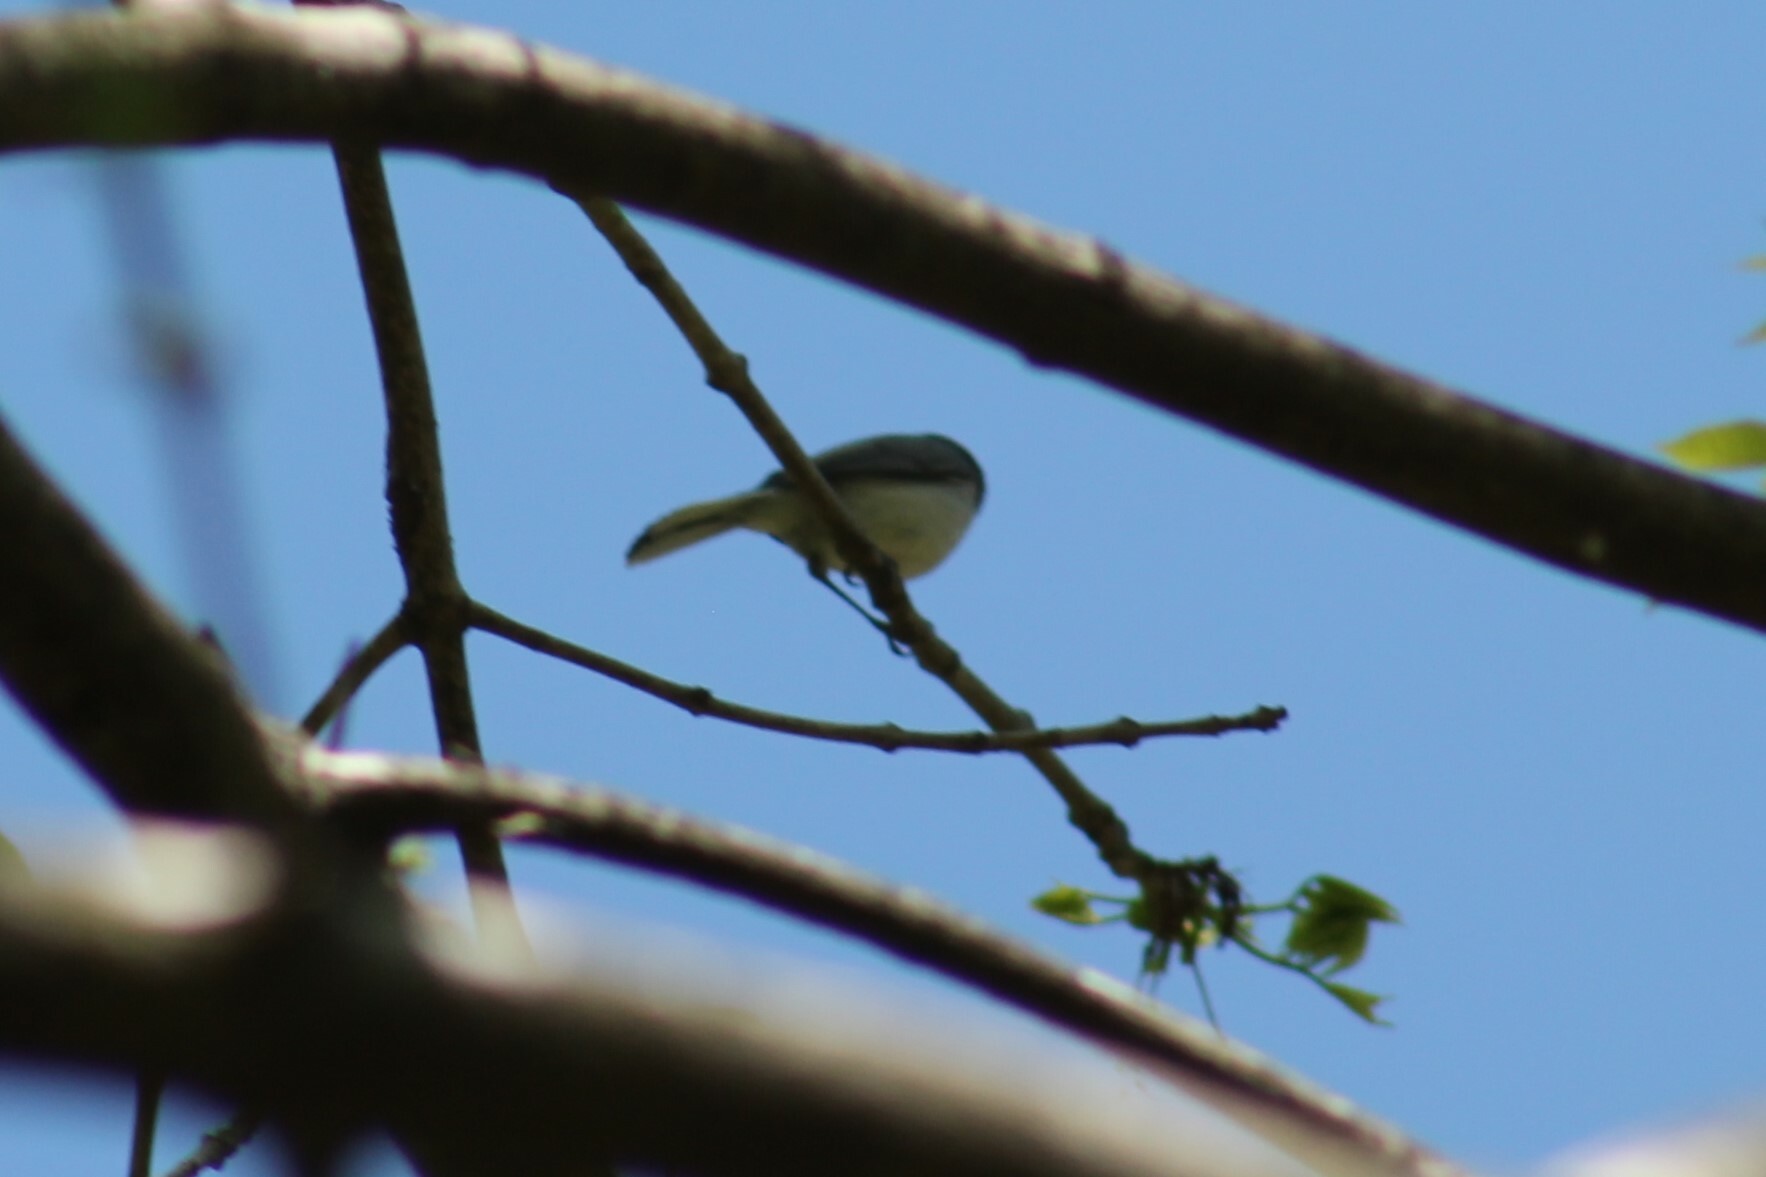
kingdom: Animalia
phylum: Chordata
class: Aves
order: Passeriformes
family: Polioptilidae
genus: Polioptila
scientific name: Polioptila caerulea
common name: Blue-gray gnatcatcher
